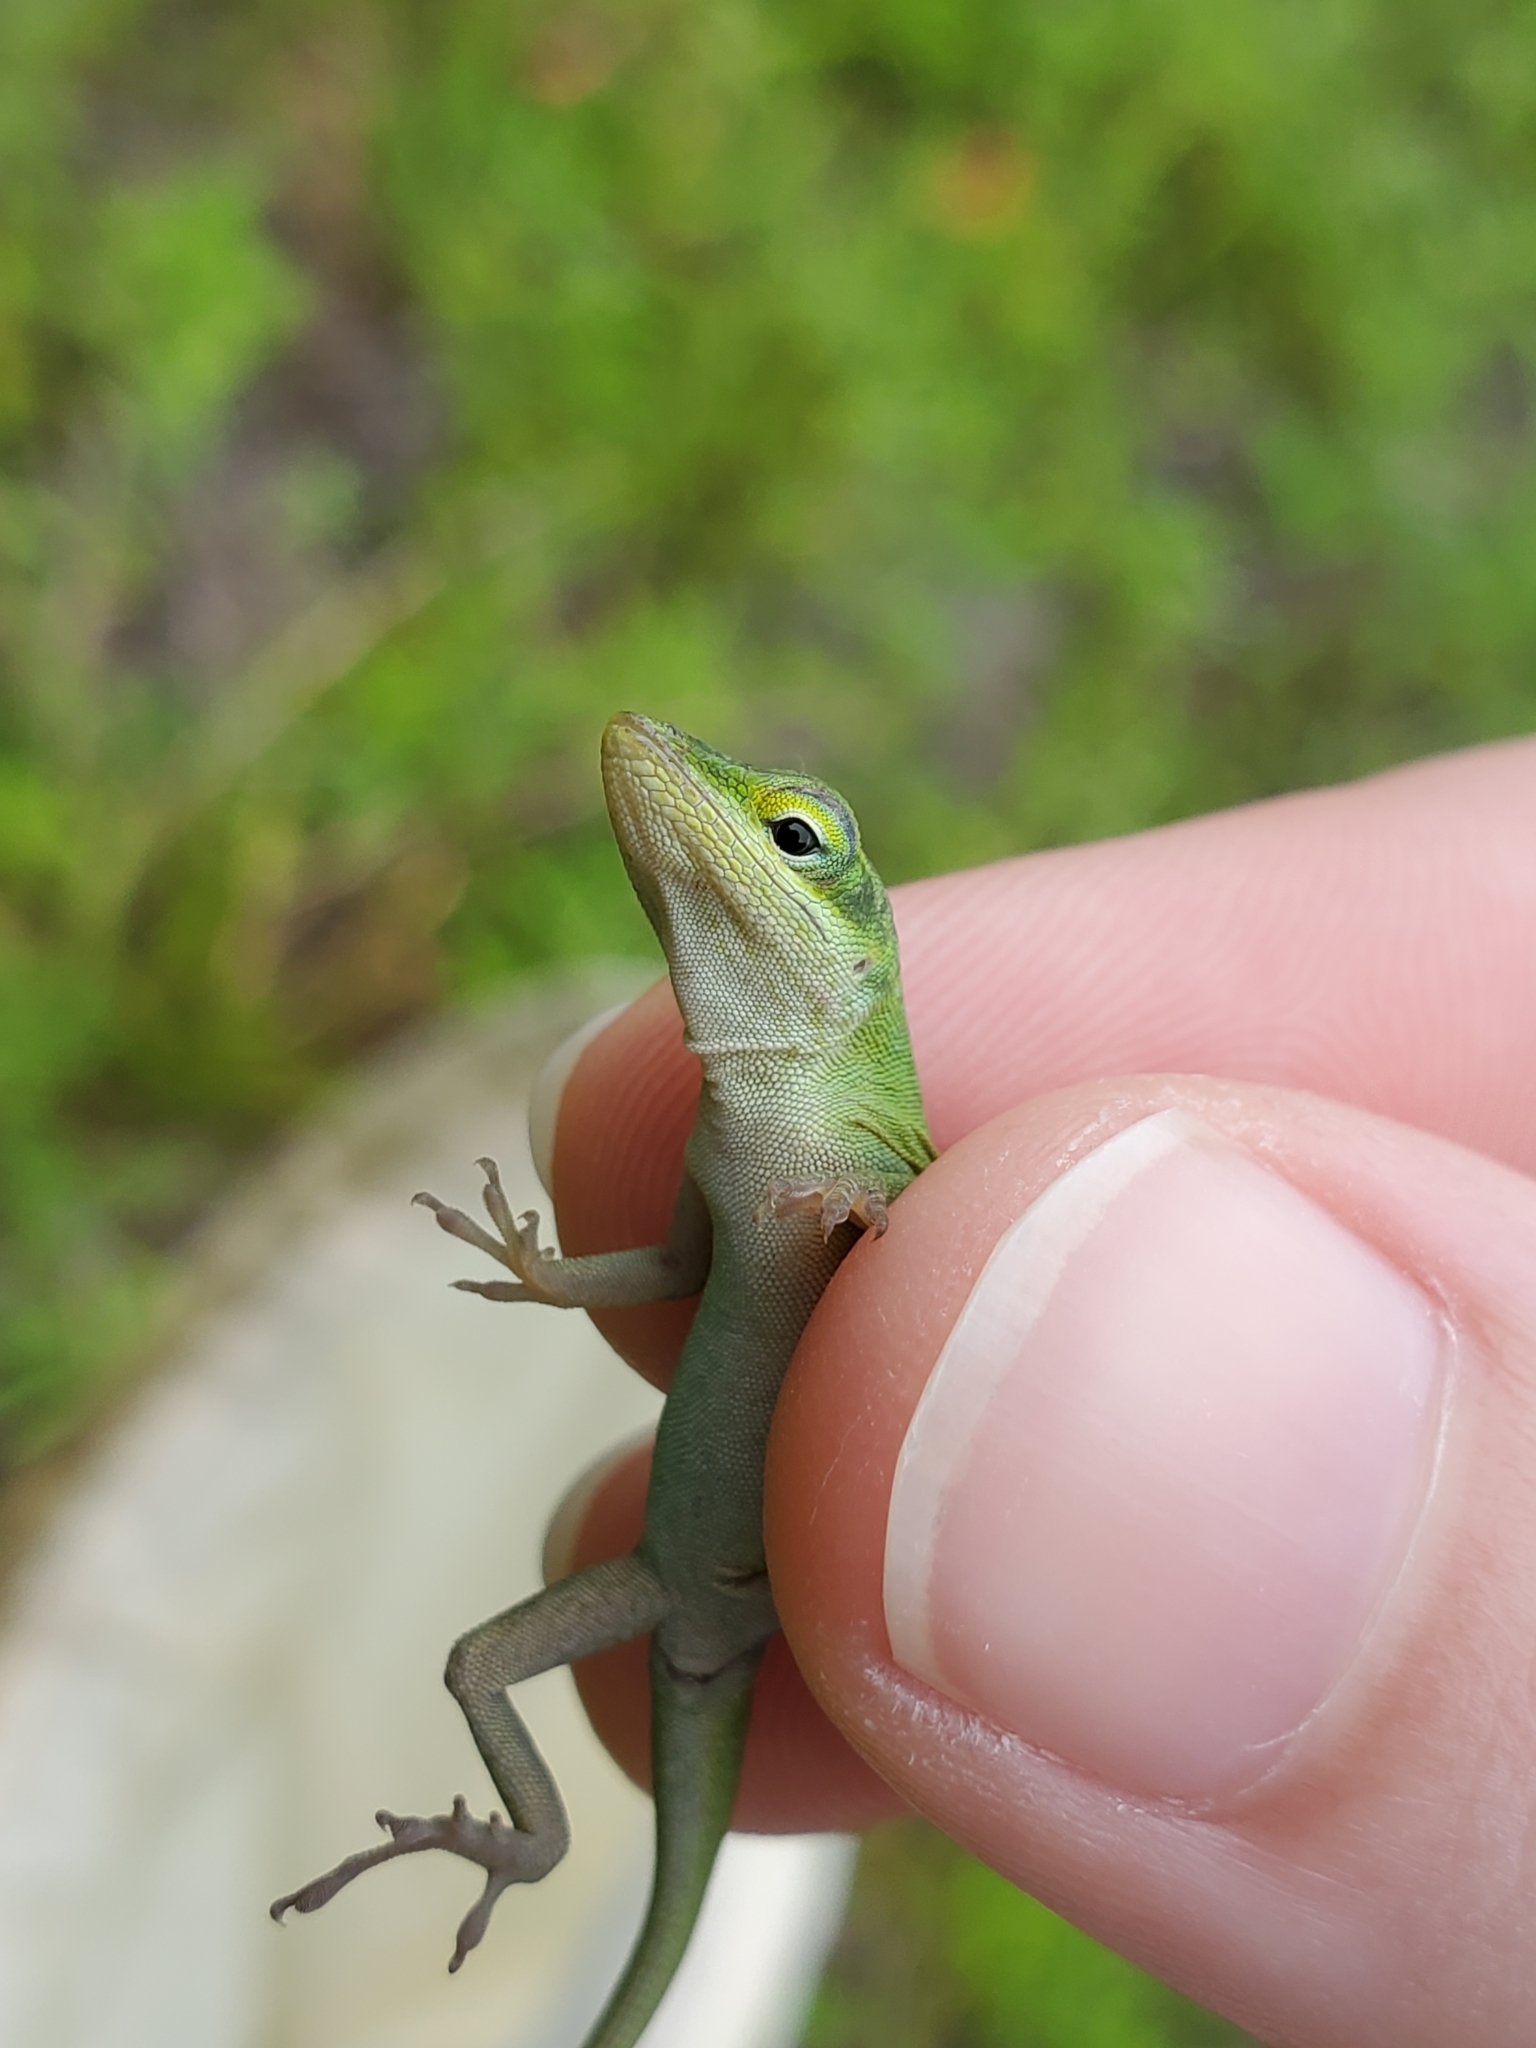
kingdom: Animalia
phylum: Chordata
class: Squamata
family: Dactyloidae
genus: Anolis
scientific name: Anolis carolinensis
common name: Green anole
